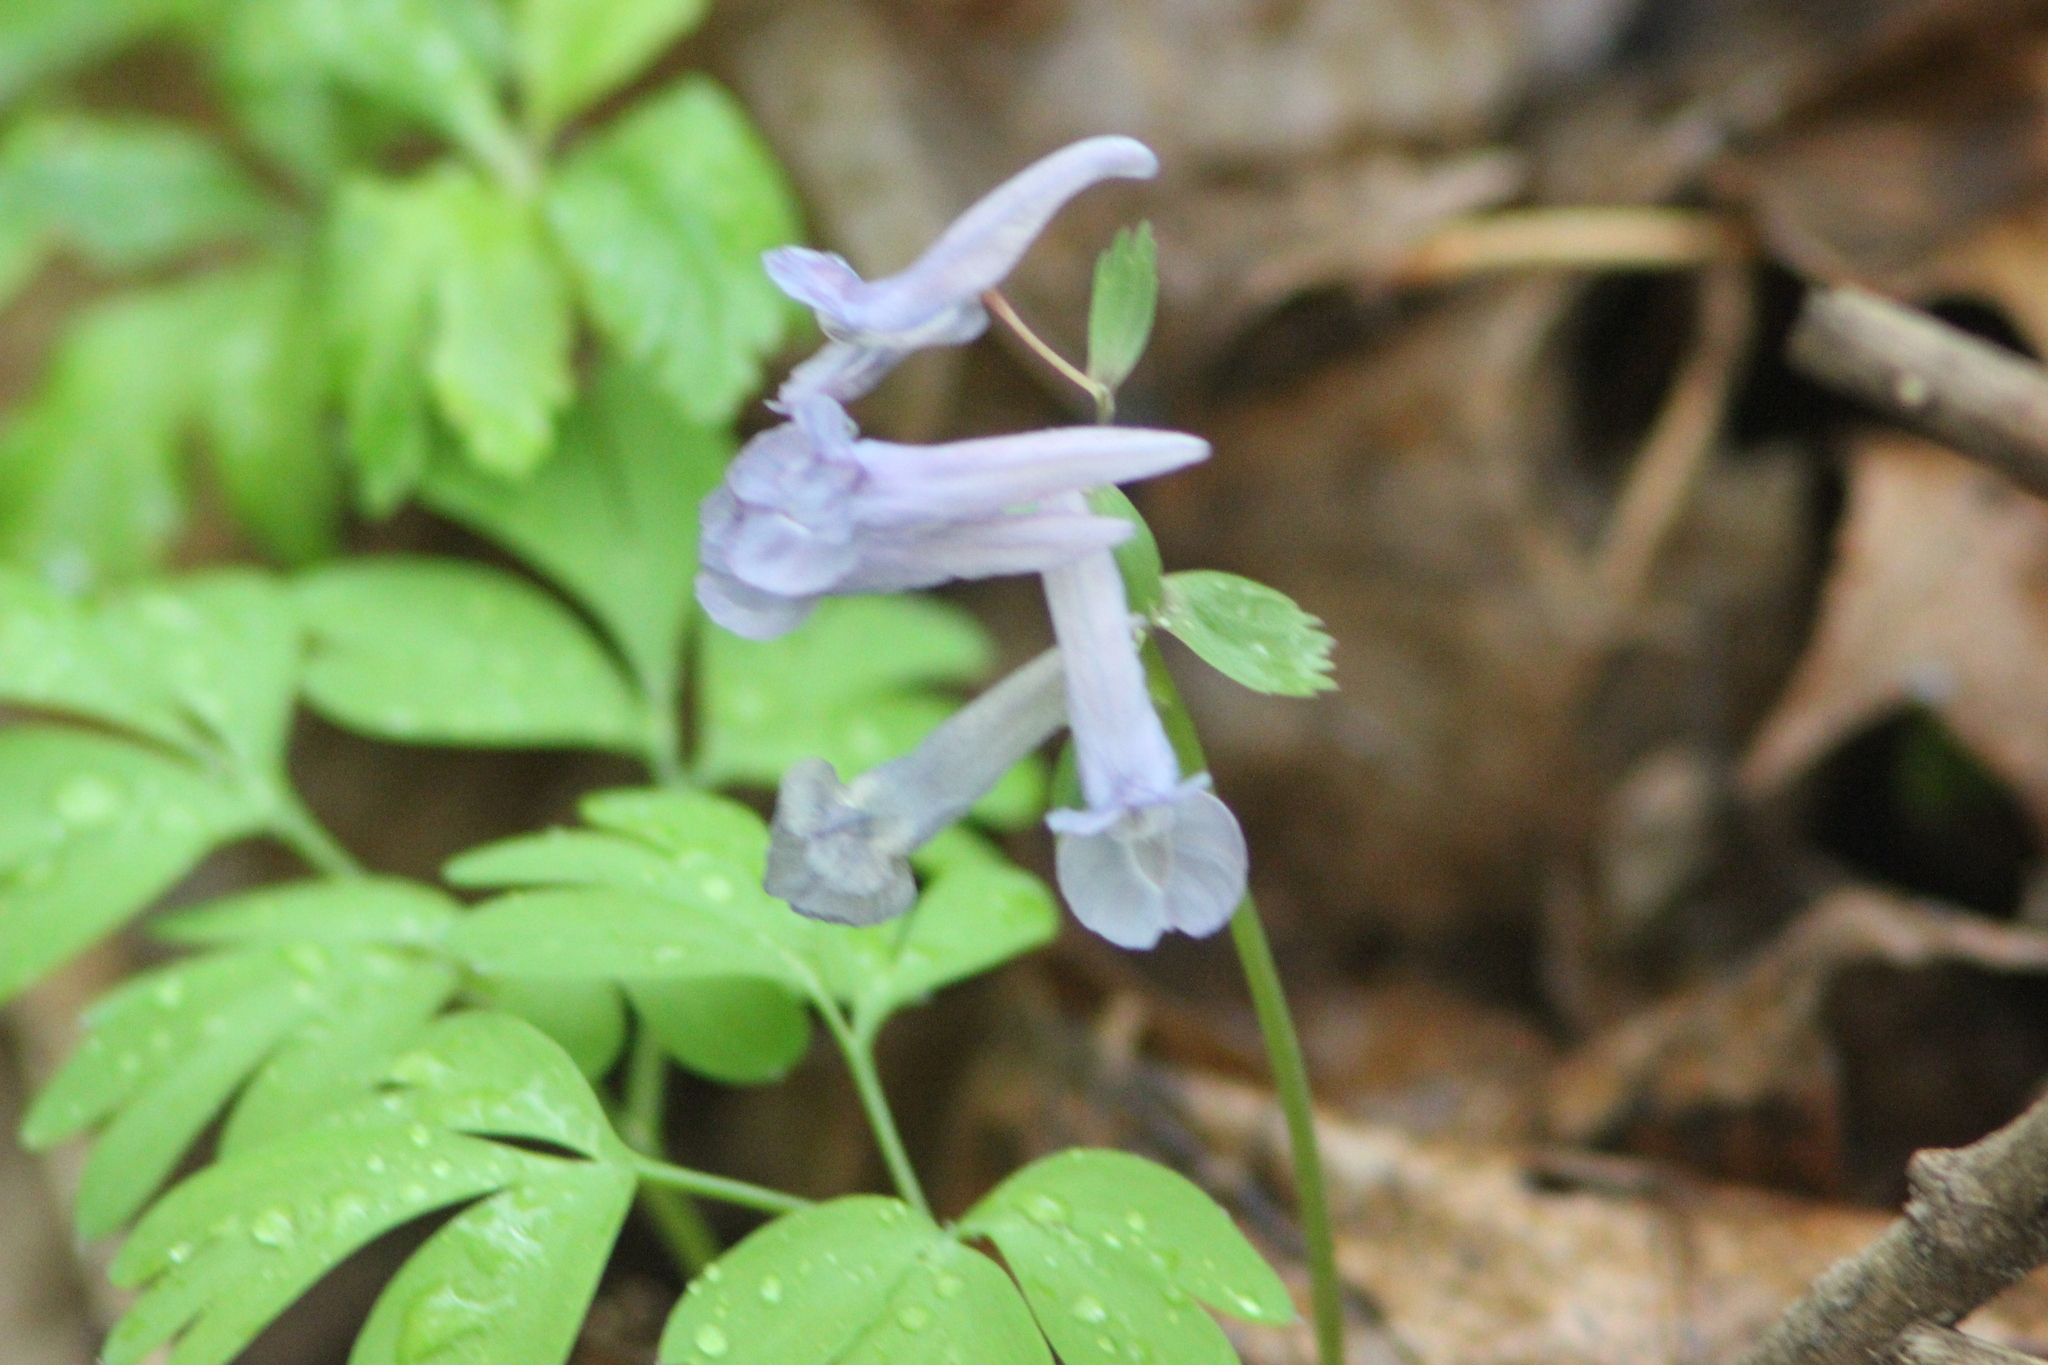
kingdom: Plantae
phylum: Tracheophyta
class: Magnoliopsida
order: Ranunculales
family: Papaveraceae
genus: Corydalis
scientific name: Corydalis solida
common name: Bird-in-a-bush
